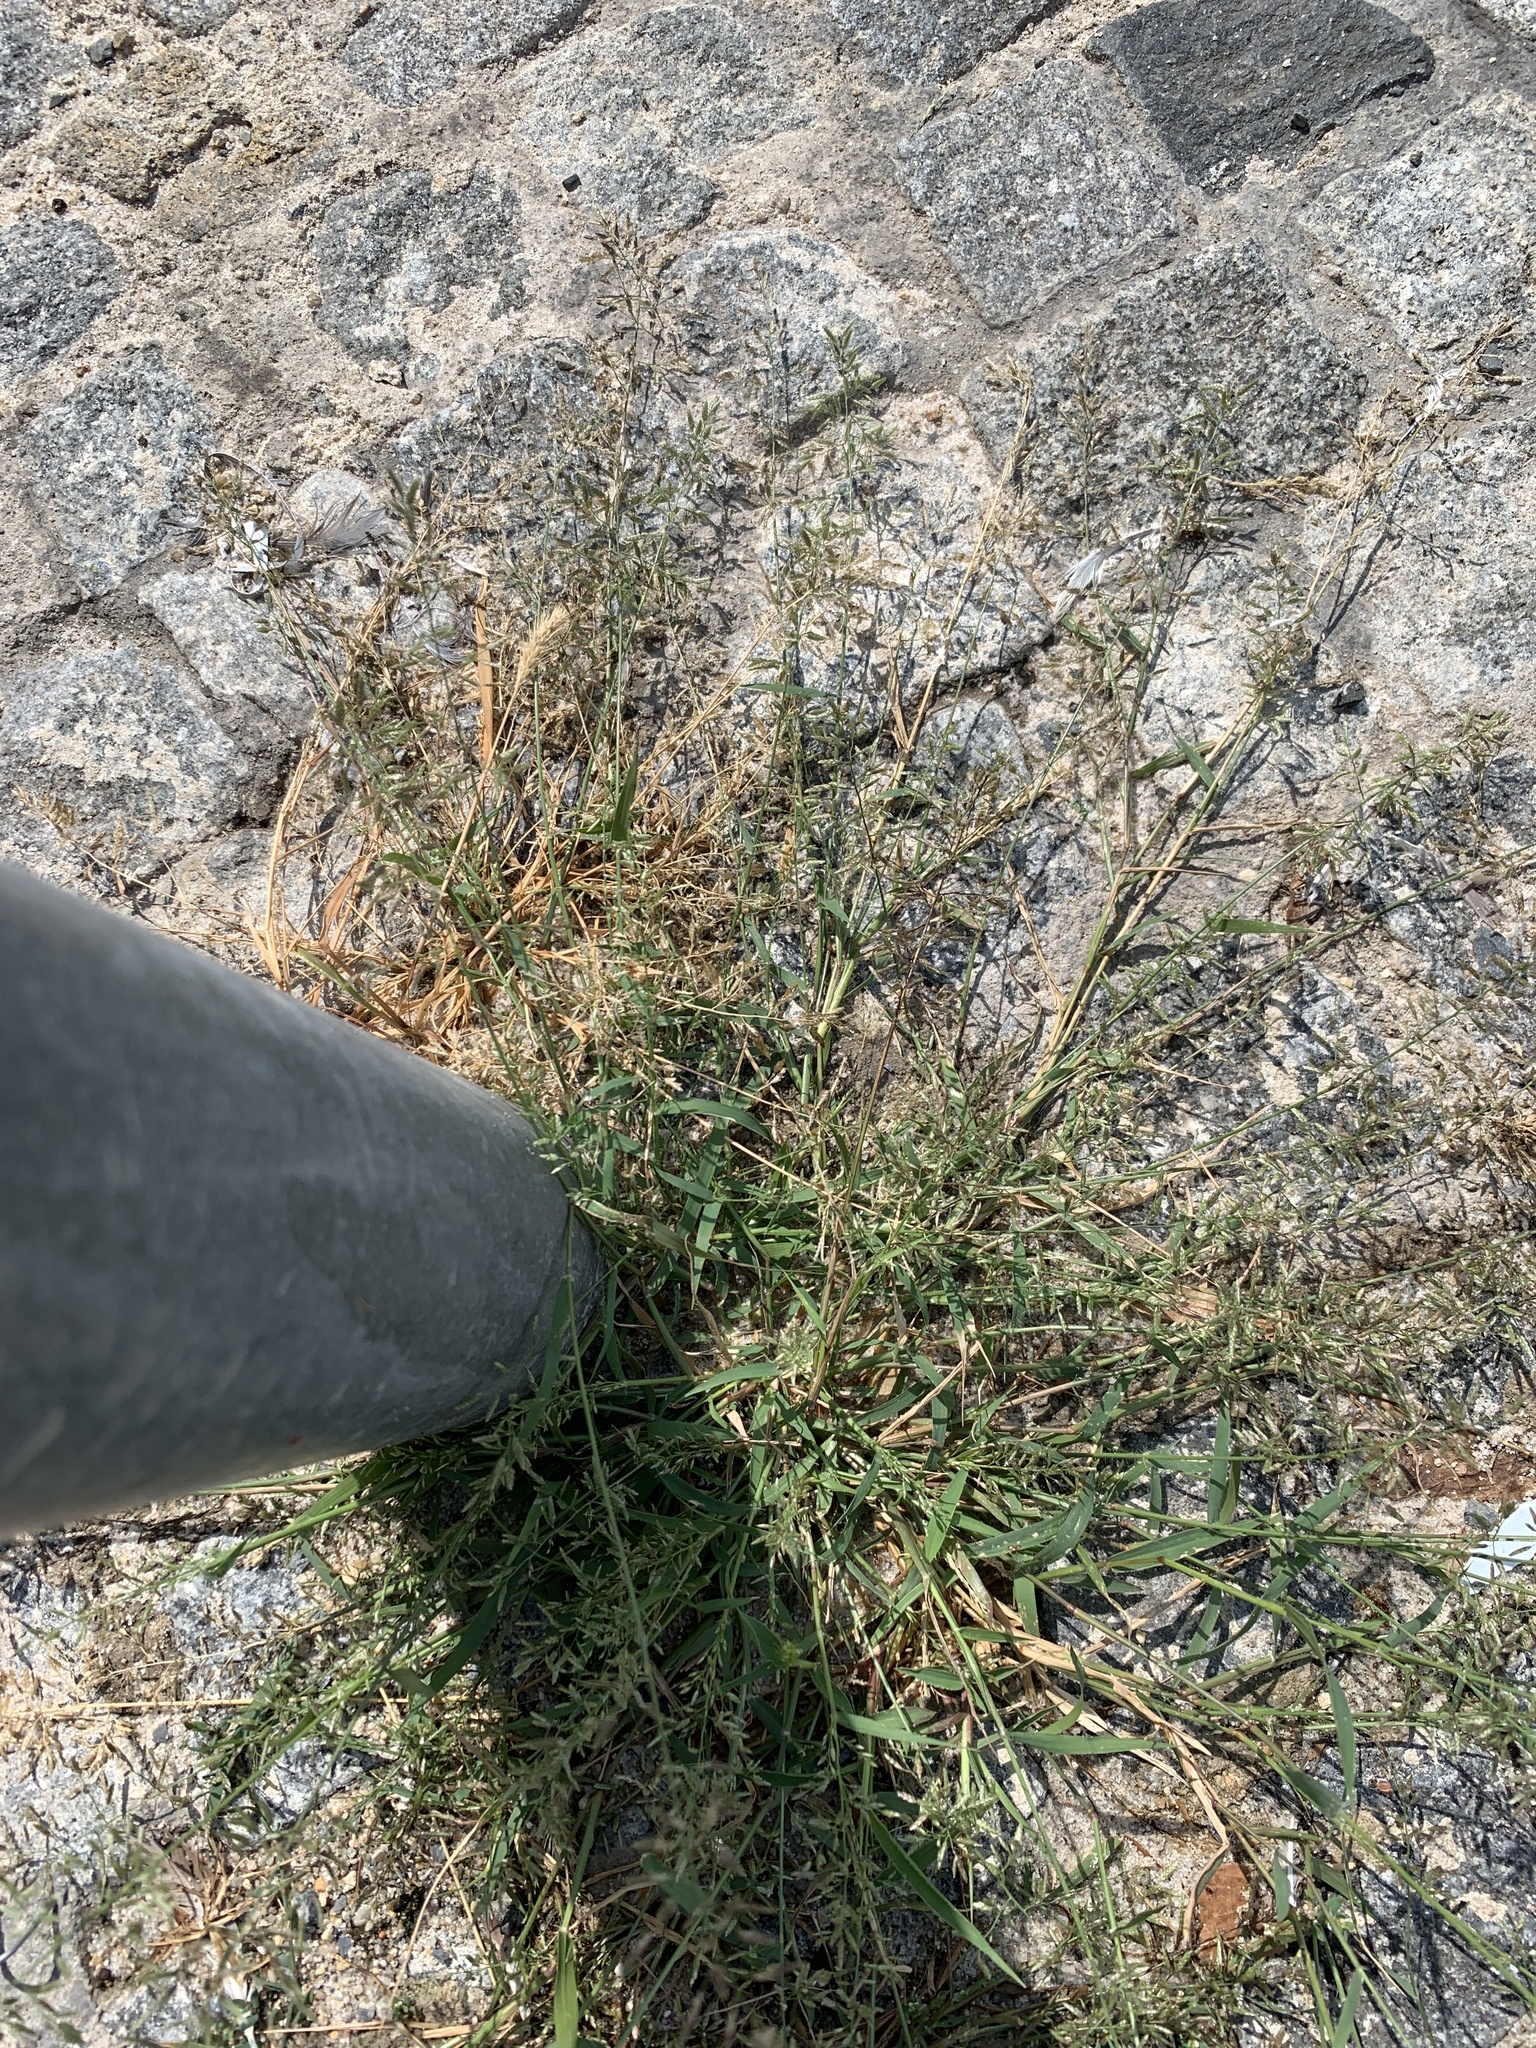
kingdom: Plantae
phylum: Tracheophyta
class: Liliopsida
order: Poales
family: Poaceae
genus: Eragrostis
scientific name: Eragrostis minor
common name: Small love-grass
